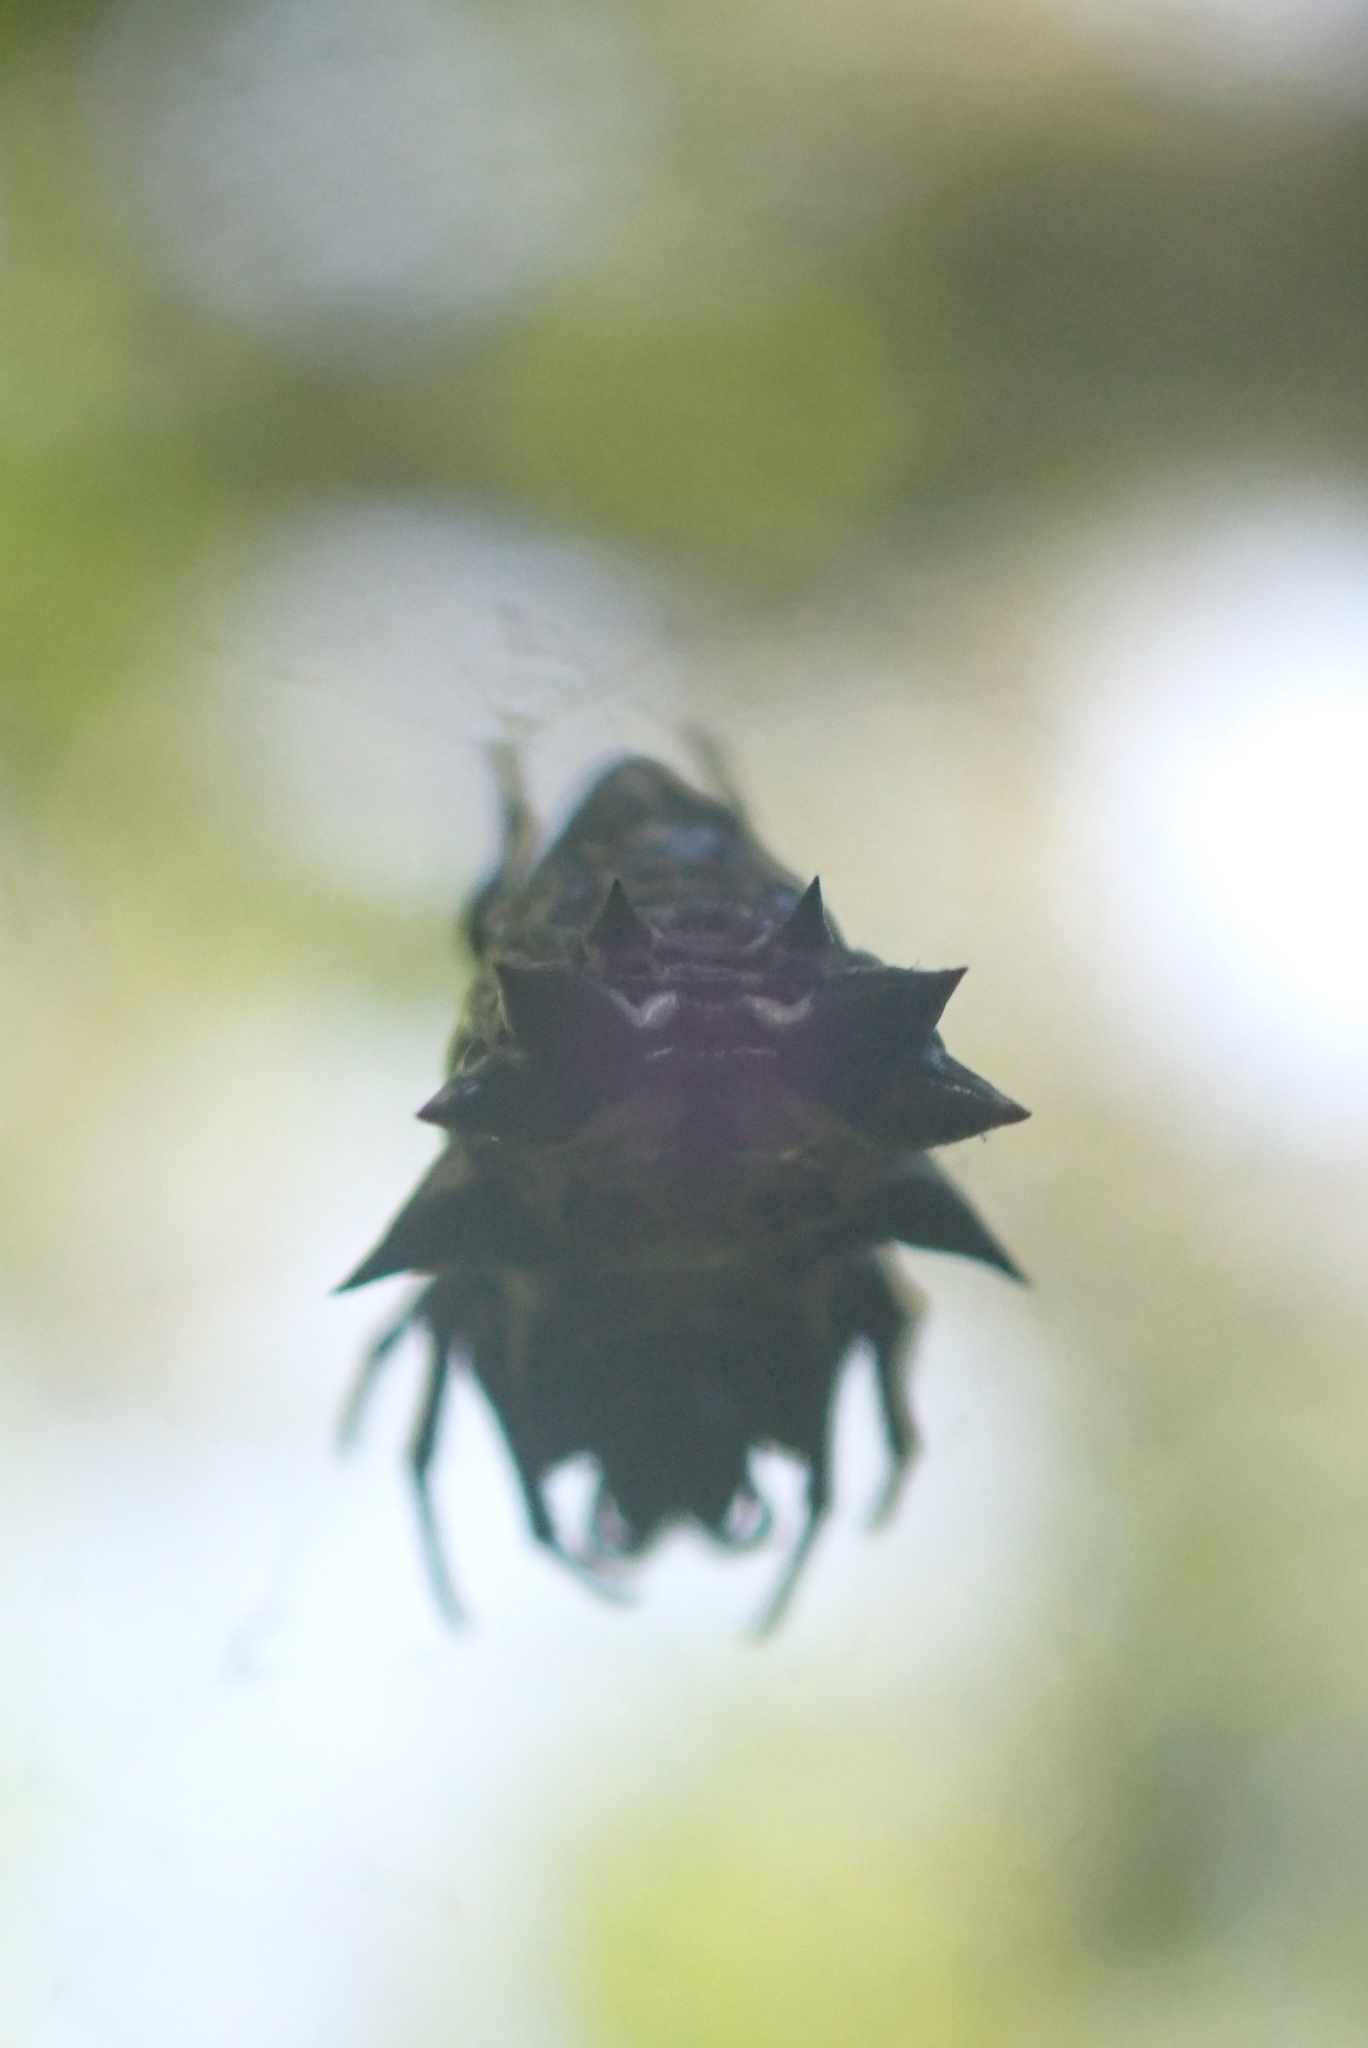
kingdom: Animalia
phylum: Arthropoda
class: Arachnida
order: Araneae
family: Araneidae
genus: Micrathena
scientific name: Micrathena gracilis
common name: Orb weavers
